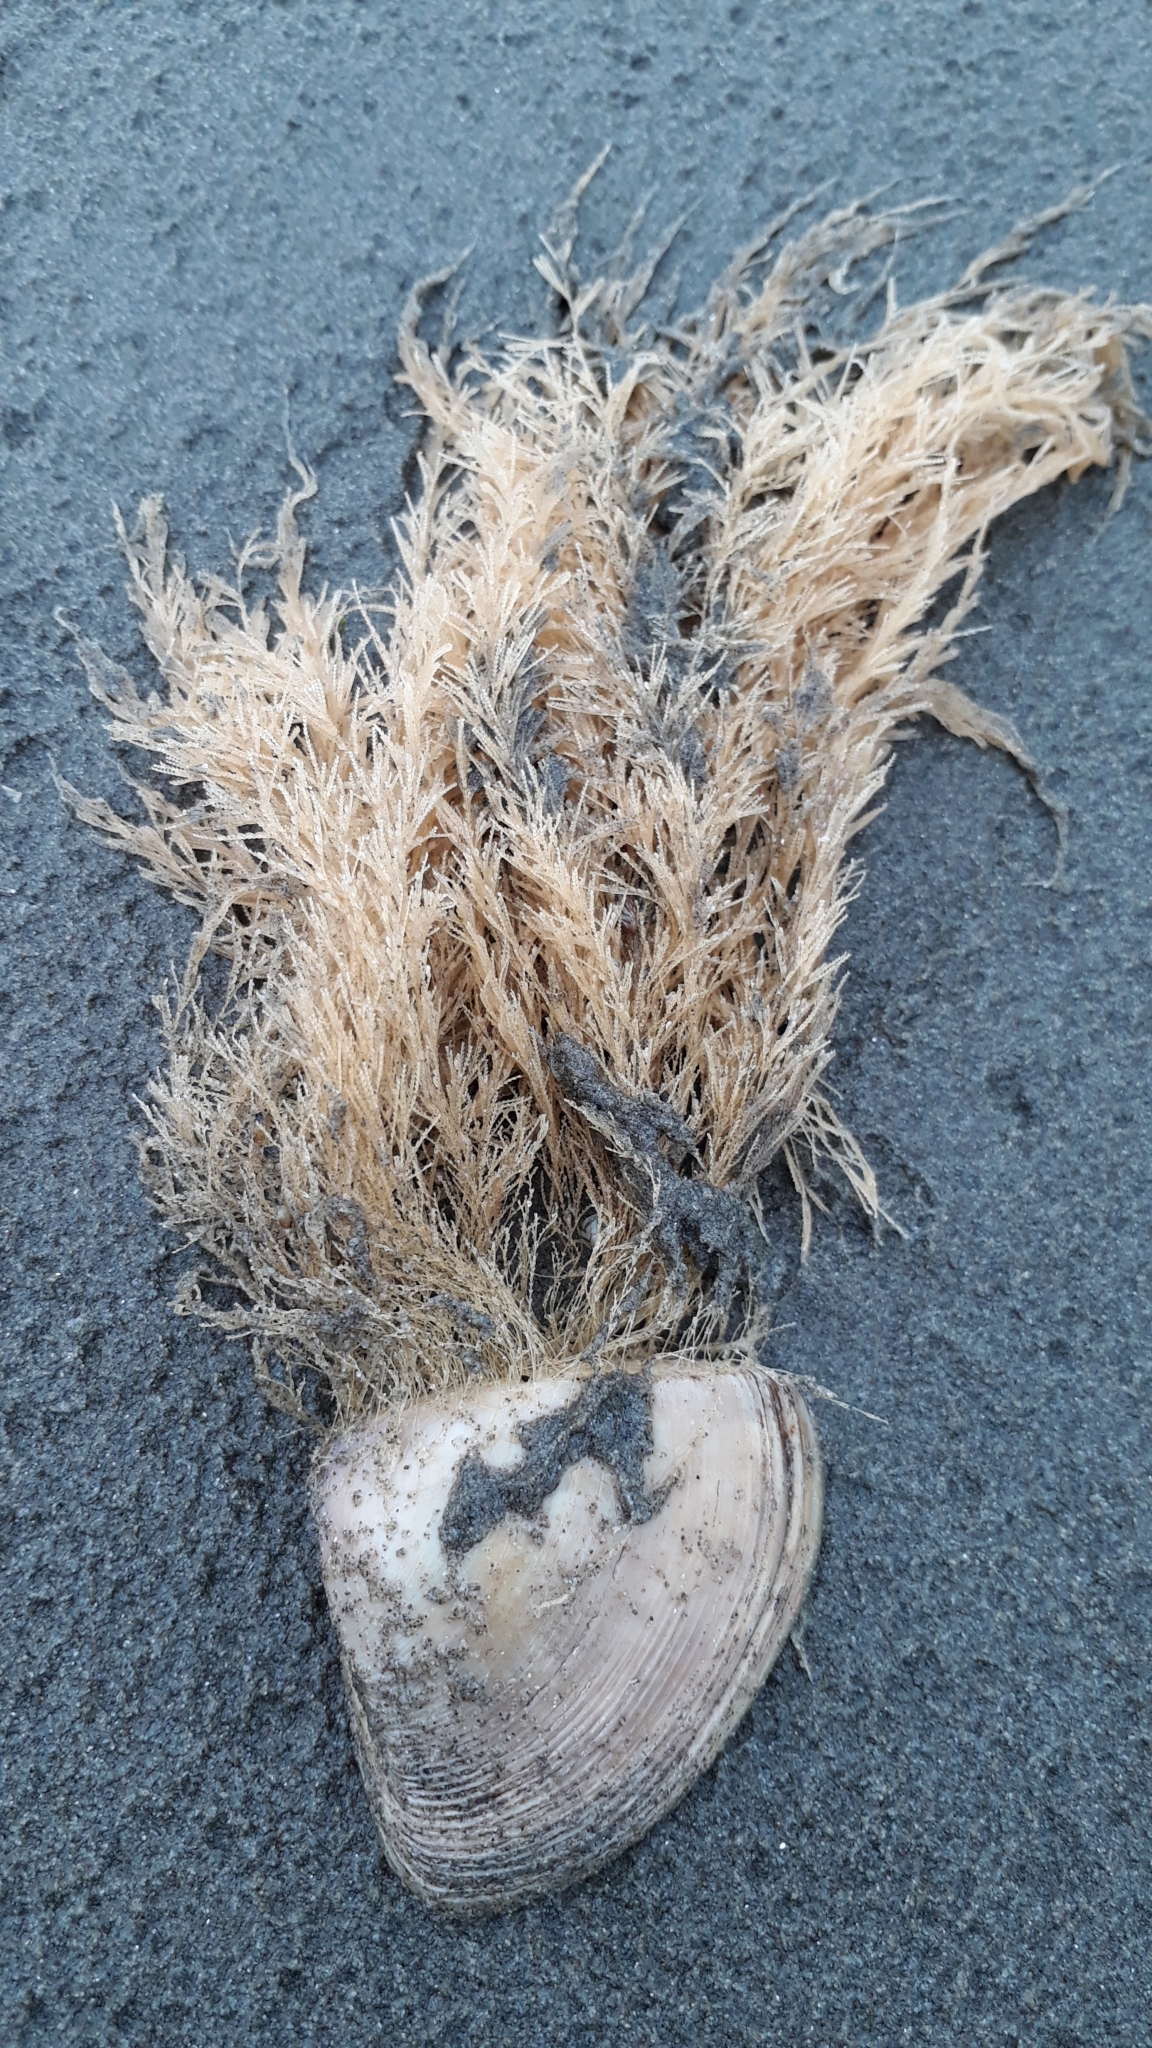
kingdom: Animalia
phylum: Cnidaria
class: Hydrozoa
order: Leptothecata
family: Sertulariidae
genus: Amphisbetia
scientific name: Amphisbetia bispinosa
